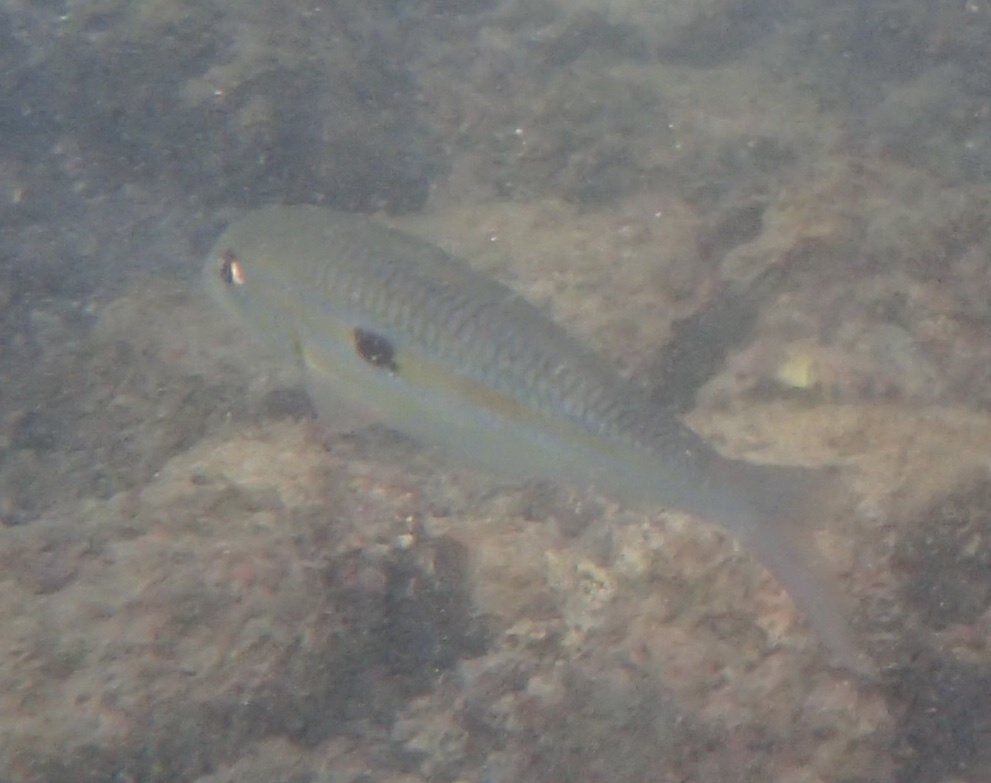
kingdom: Animalia
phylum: Chordata
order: Perciformes
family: Mullidae
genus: Mulloidichthys
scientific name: Mulloidichthys flavolineatus
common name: Yellowstripe goatfish
